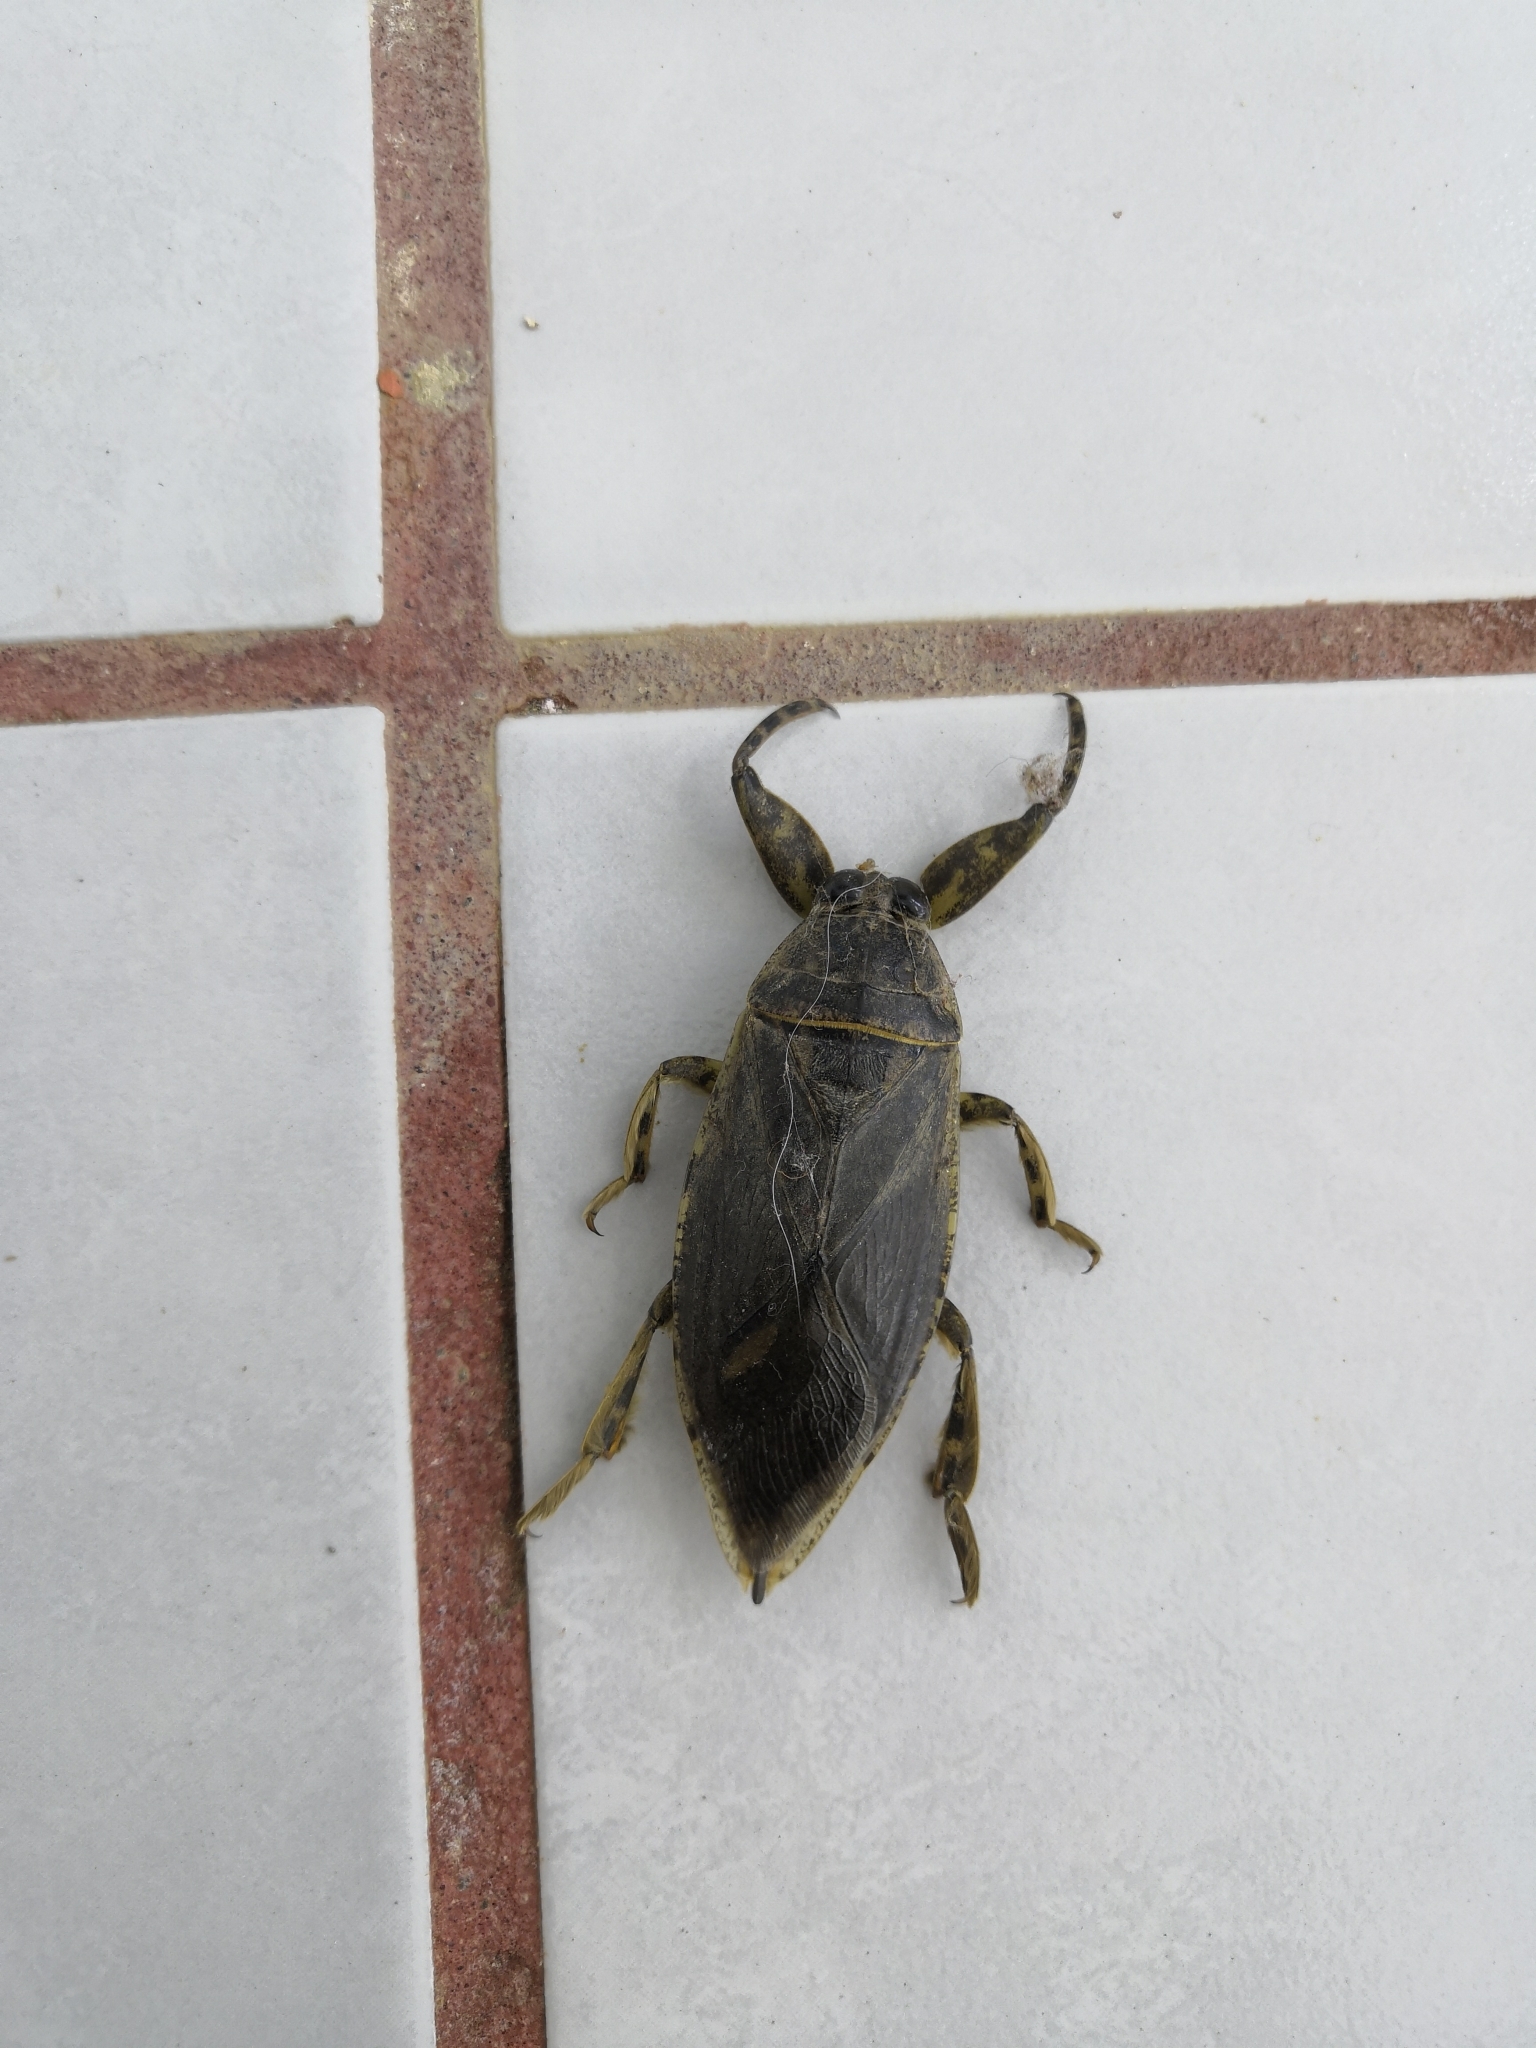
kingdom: Animalia
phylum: Arthropoda
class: Insecta
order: Hemiptera
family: Belostomatidae
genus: Lethocerus
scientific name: Lethocerus medius
